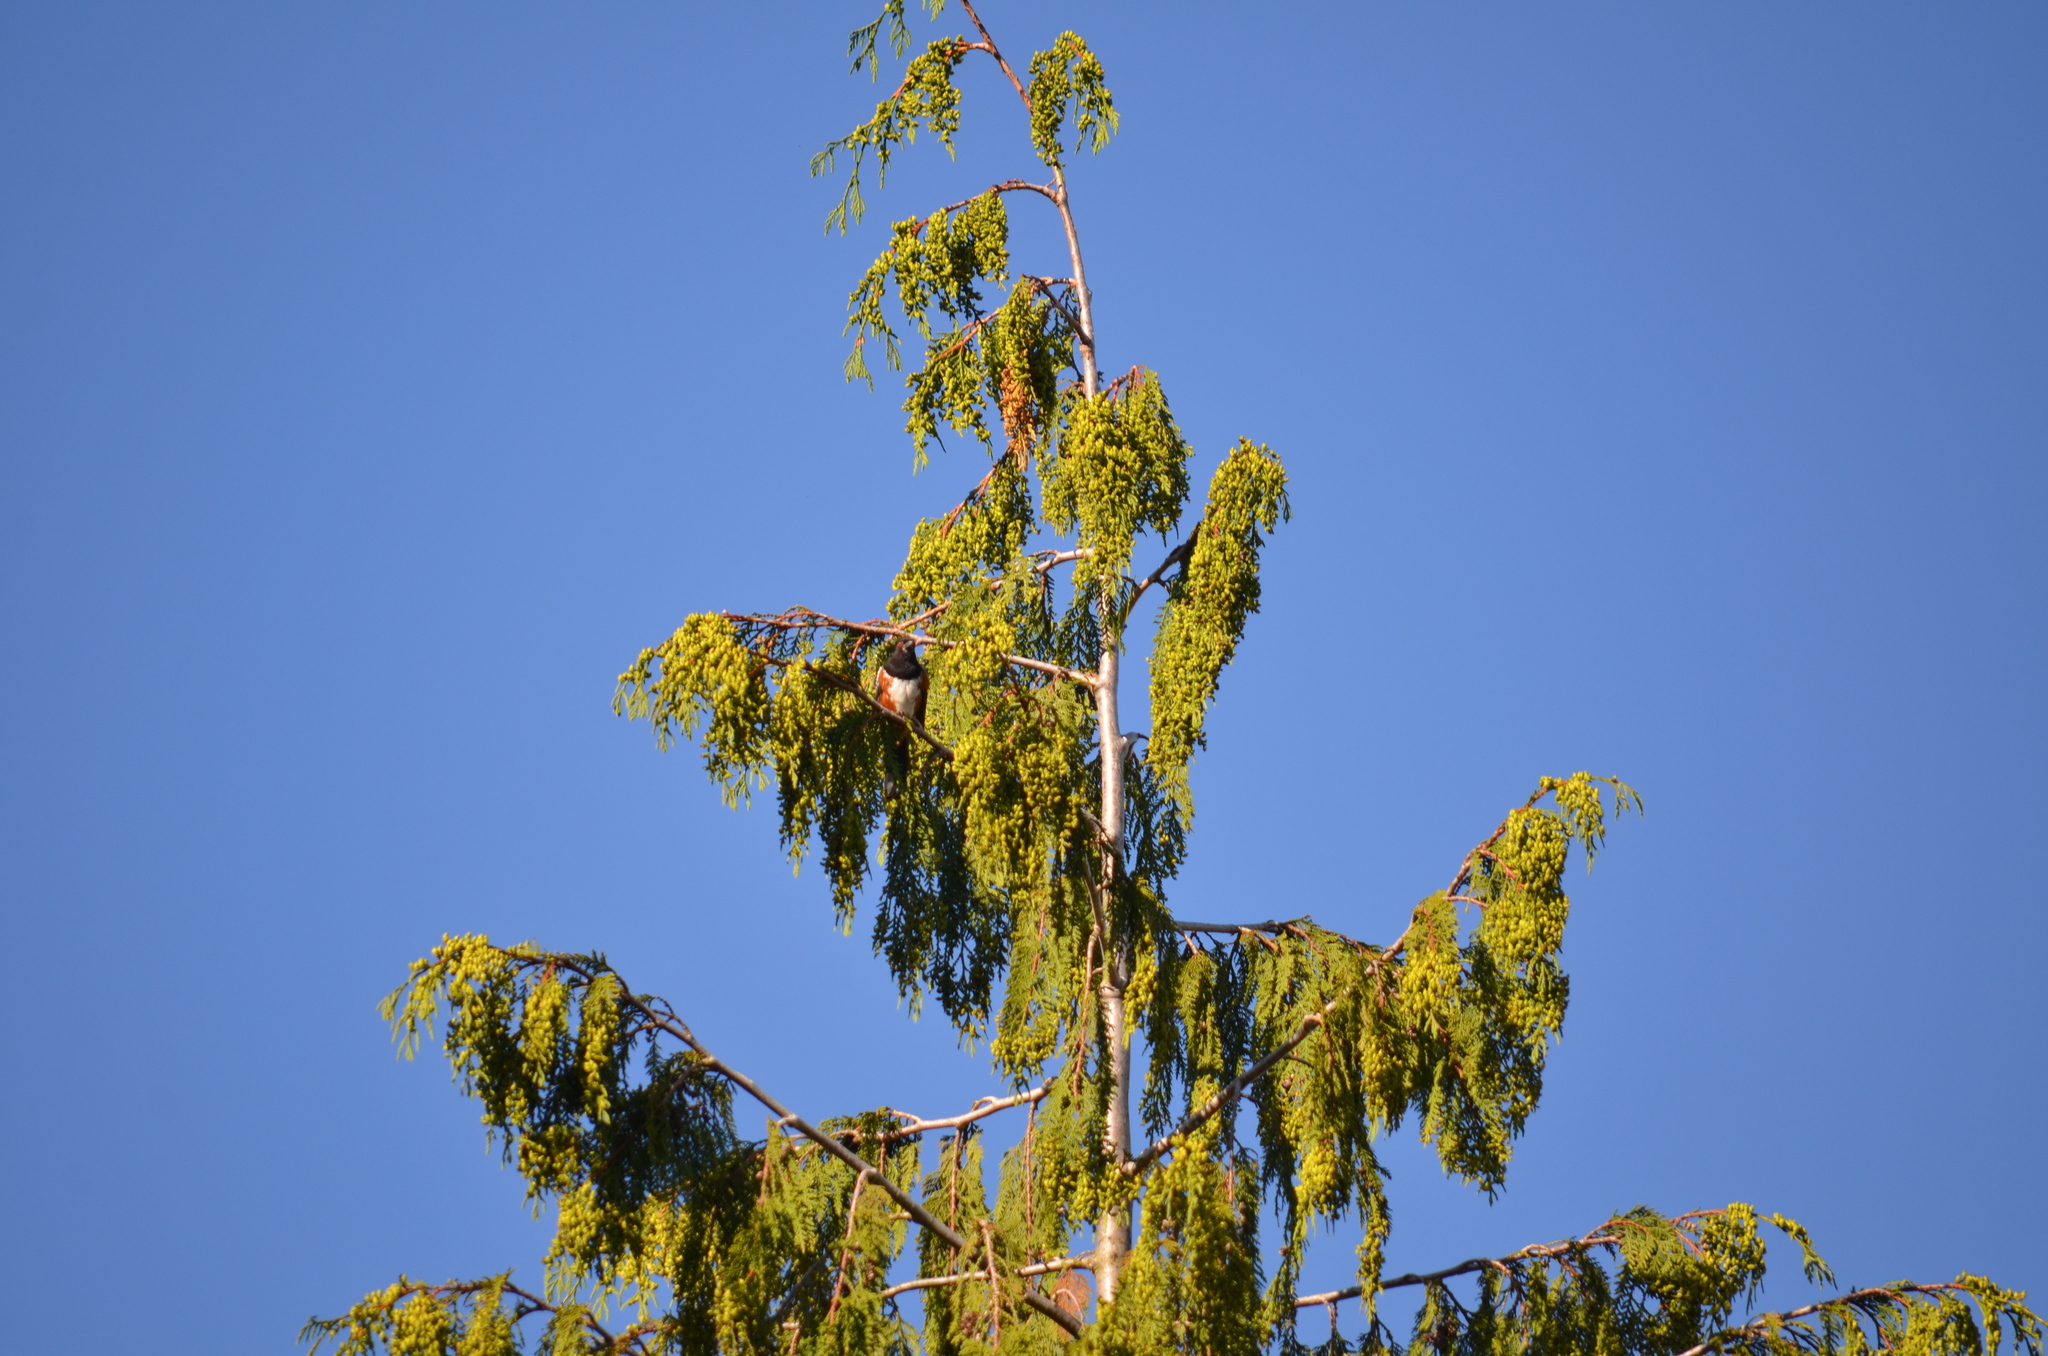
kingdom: Animalia
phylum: Chordata
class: Aves
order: Passeriformes
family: Passerellidae
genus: Pipilo
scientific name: Pipilo maculatus
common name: Spotted towhee
